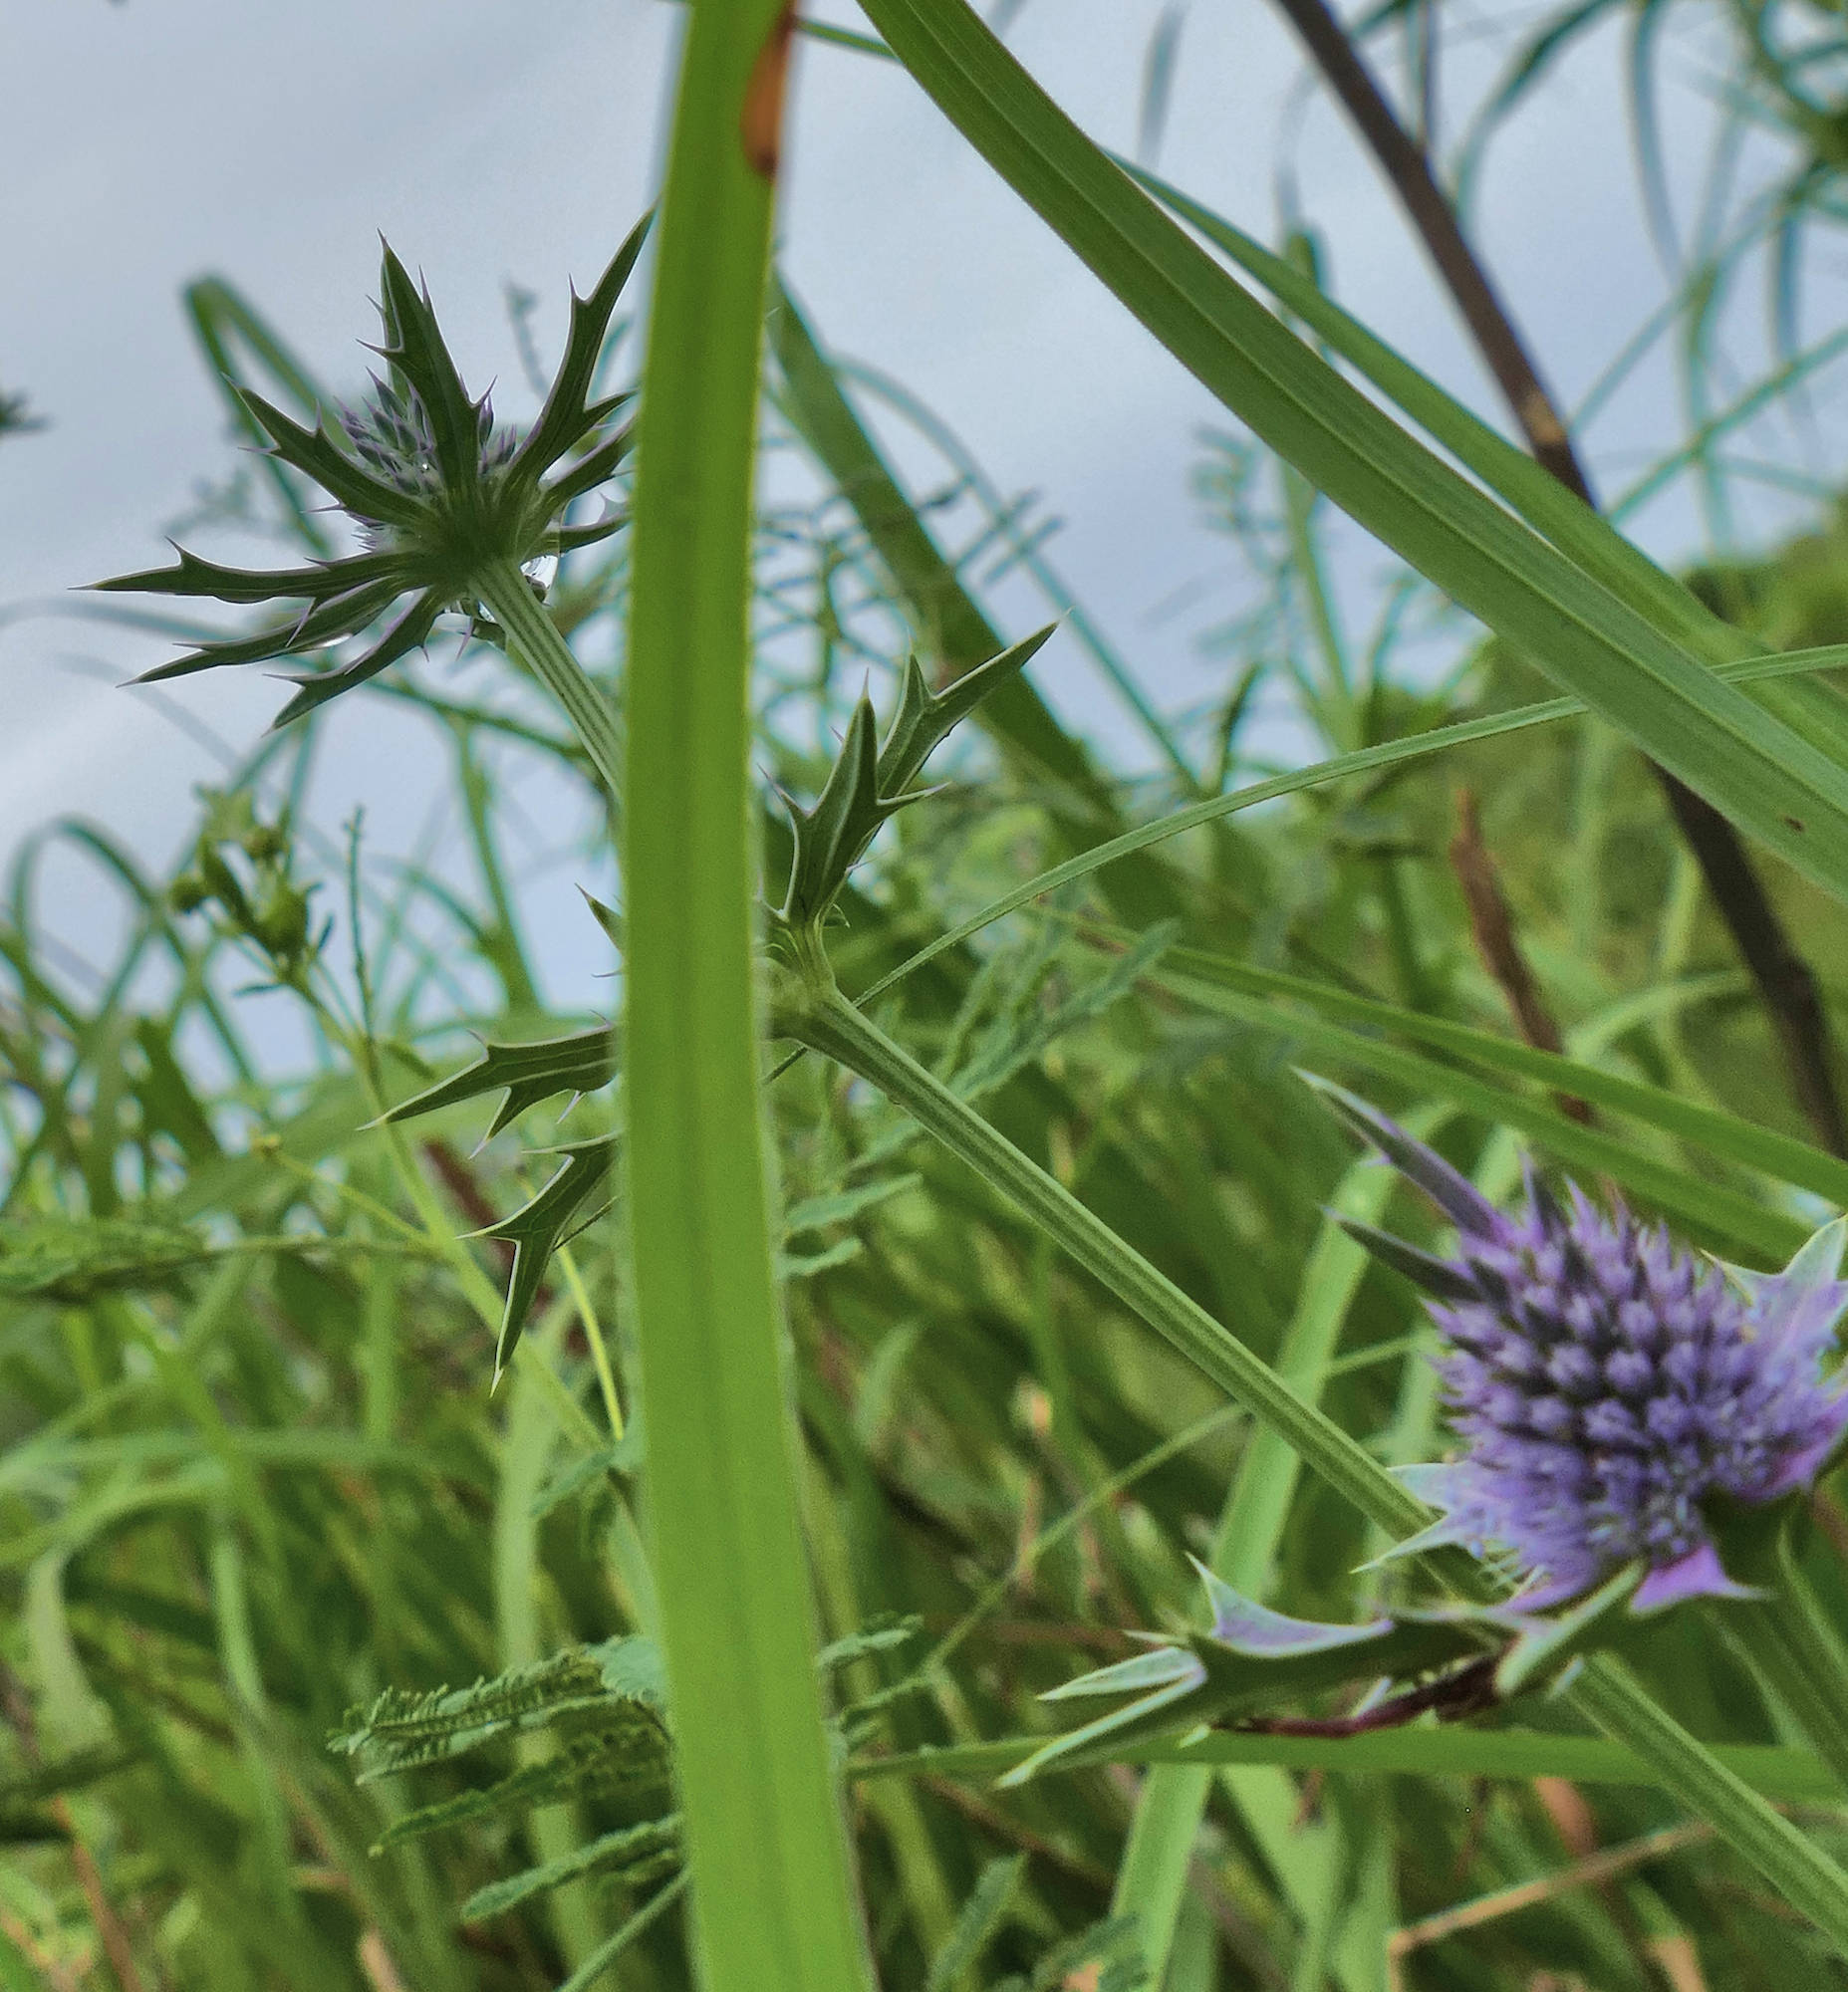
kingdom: Plantae
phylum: Tracheophyta
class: Magnoliopsida
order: Apiales
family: Apiaceae
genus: Eryngium
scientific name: Eryngium hookeri
